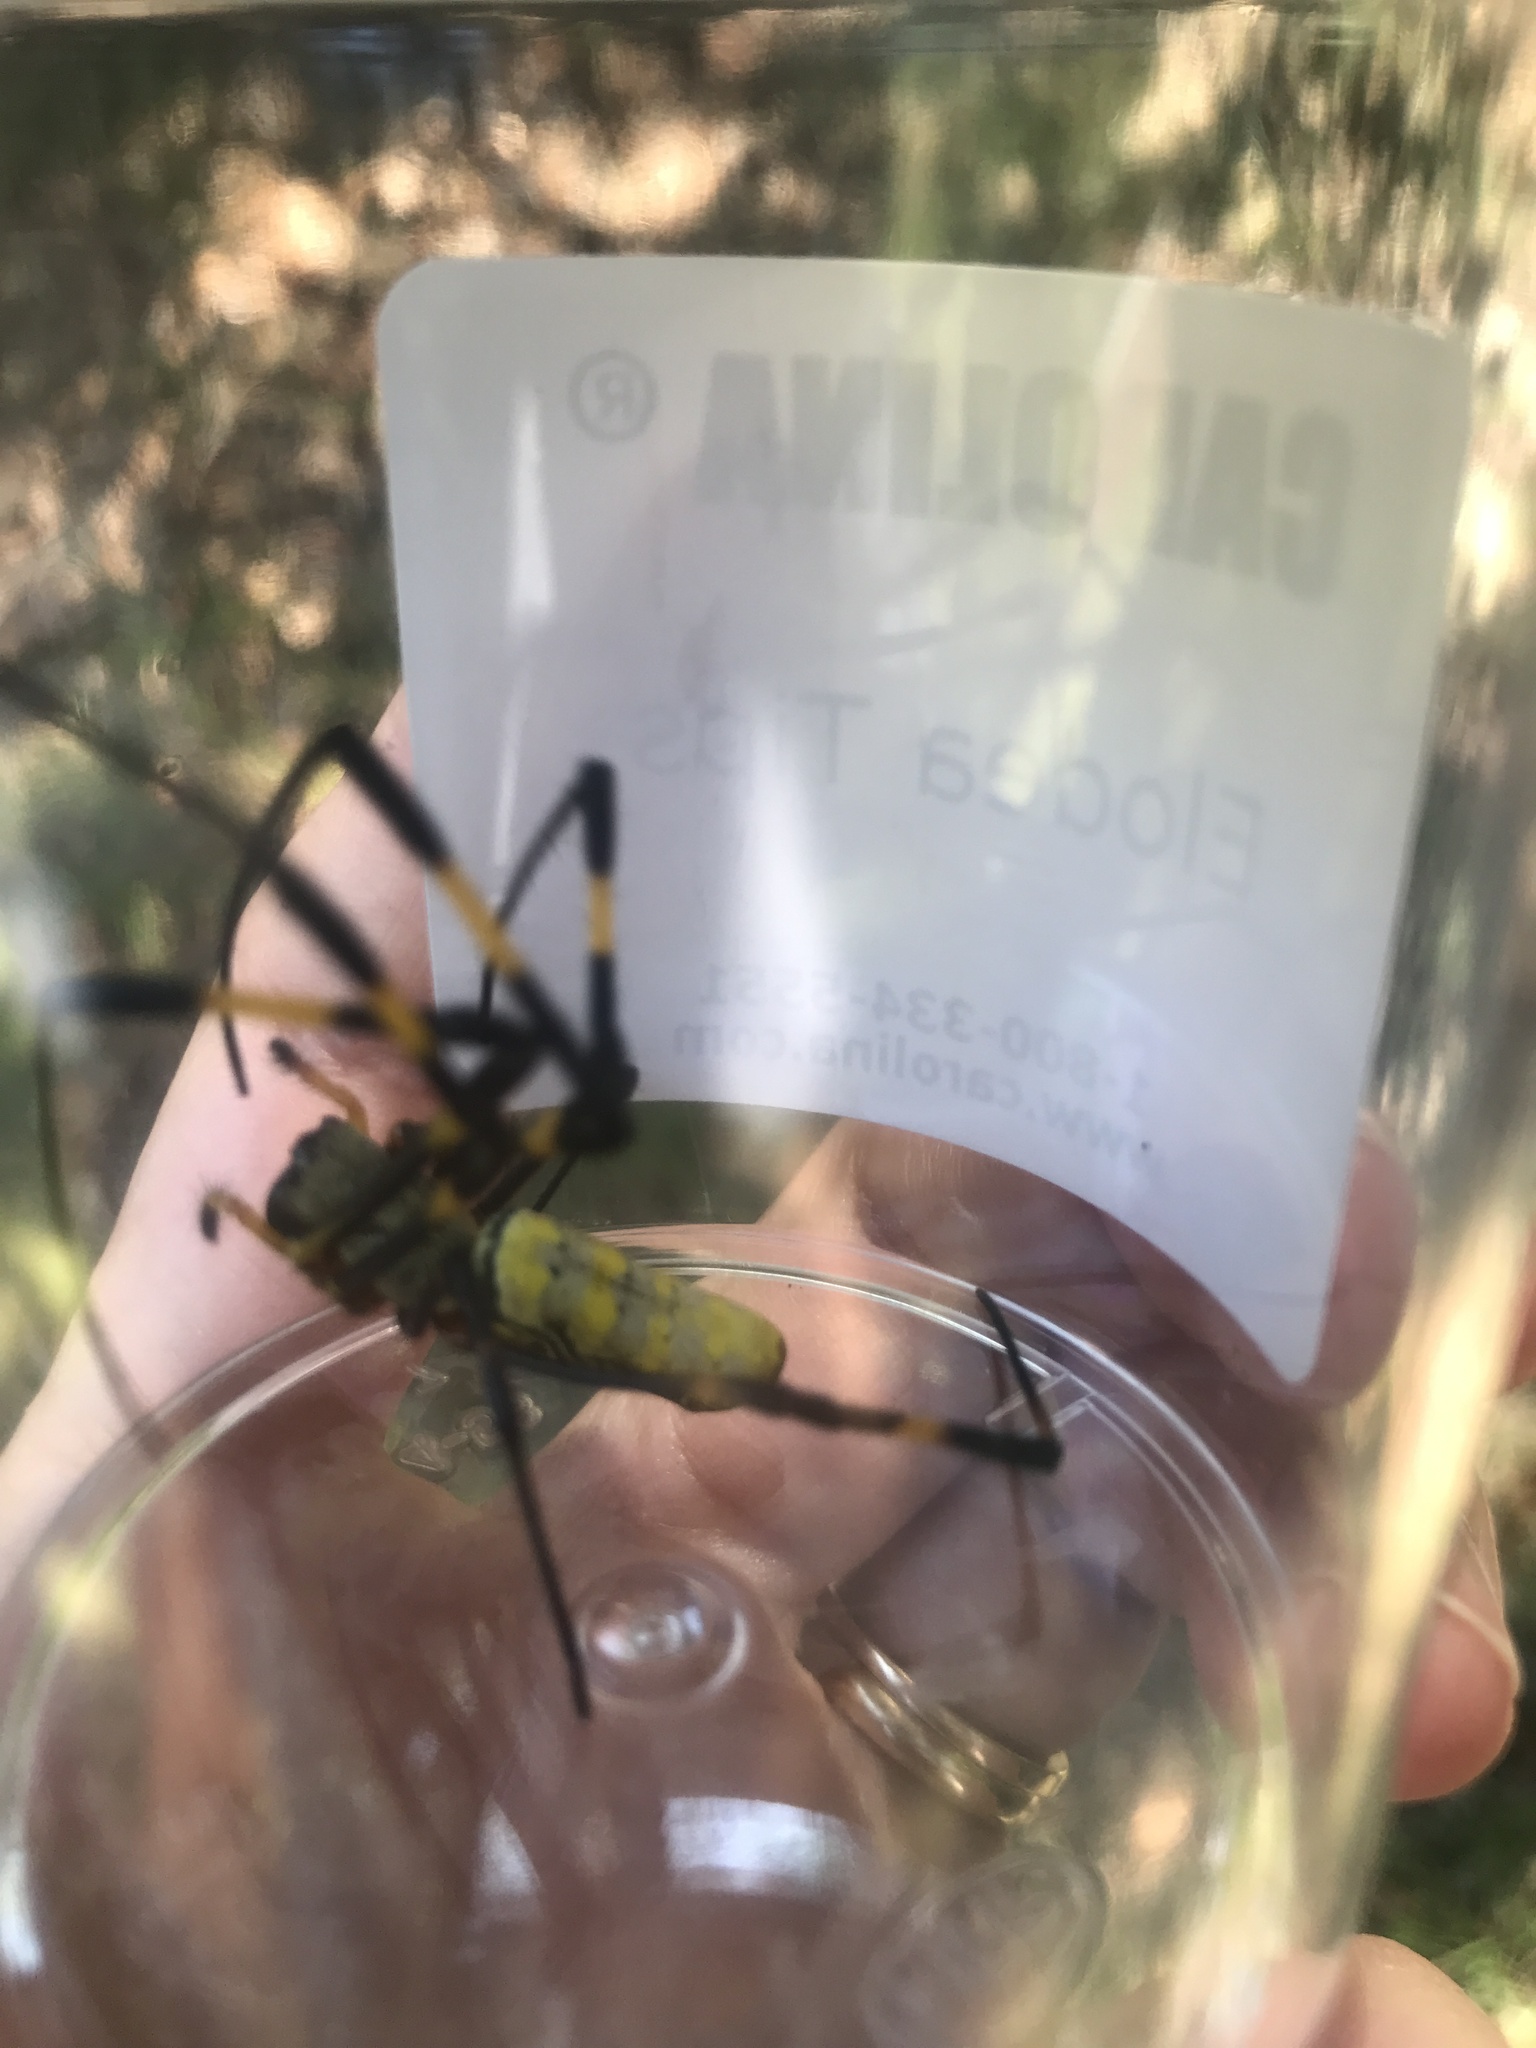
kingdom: Animalia
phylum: Arthropoda
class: Arachnida
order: Araneae
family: Araneidae
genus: Trichonephila
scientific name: Trichonephila clavata
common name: Jorō spider
